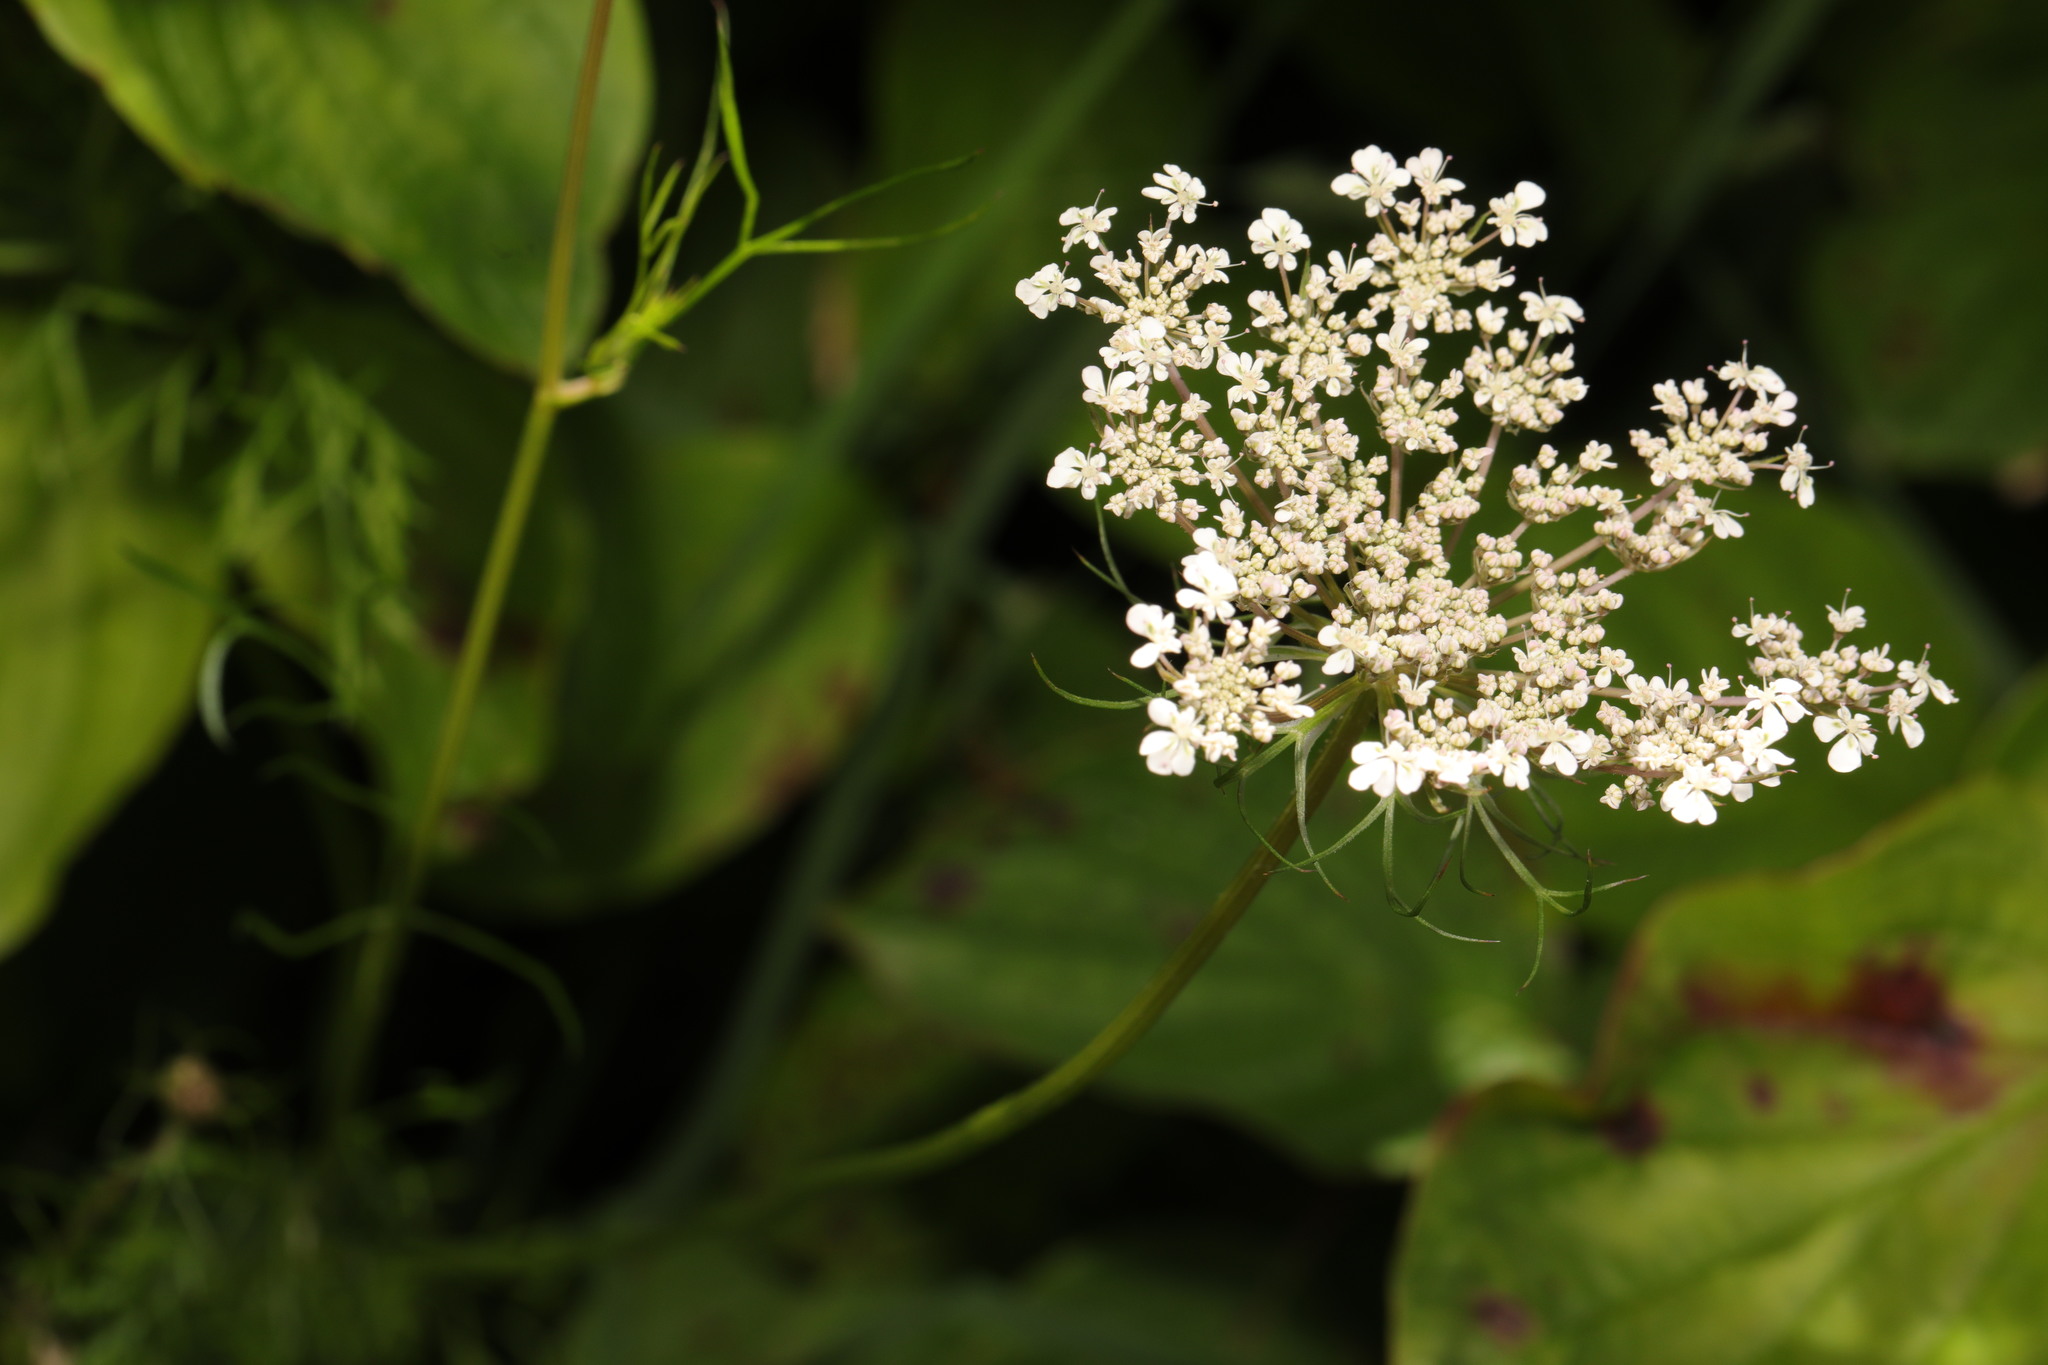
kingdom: Plantae
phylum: Tracheophyta
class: Magnoliopsida
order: Apiales
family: Apiaceae
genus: Daucus
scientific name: Daucus carota
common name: Wild carrot
